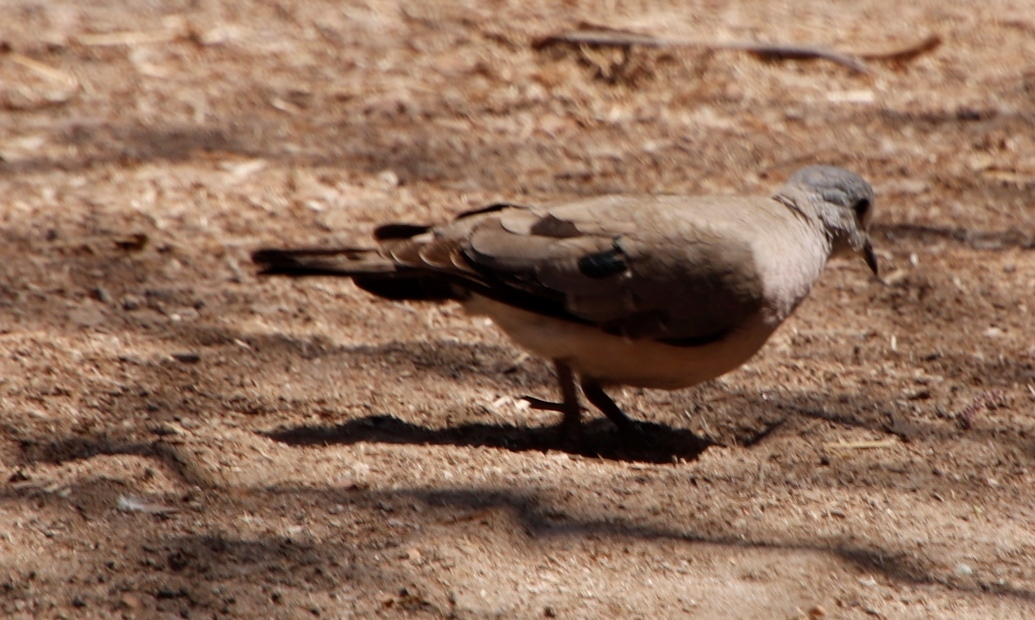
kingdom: Animalia
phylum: Chordata
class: Aves
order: Columbiformes
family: Columbidae
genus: Turtur
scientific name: Turtur chalcospilos
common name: Emerald-spotted wood dove
